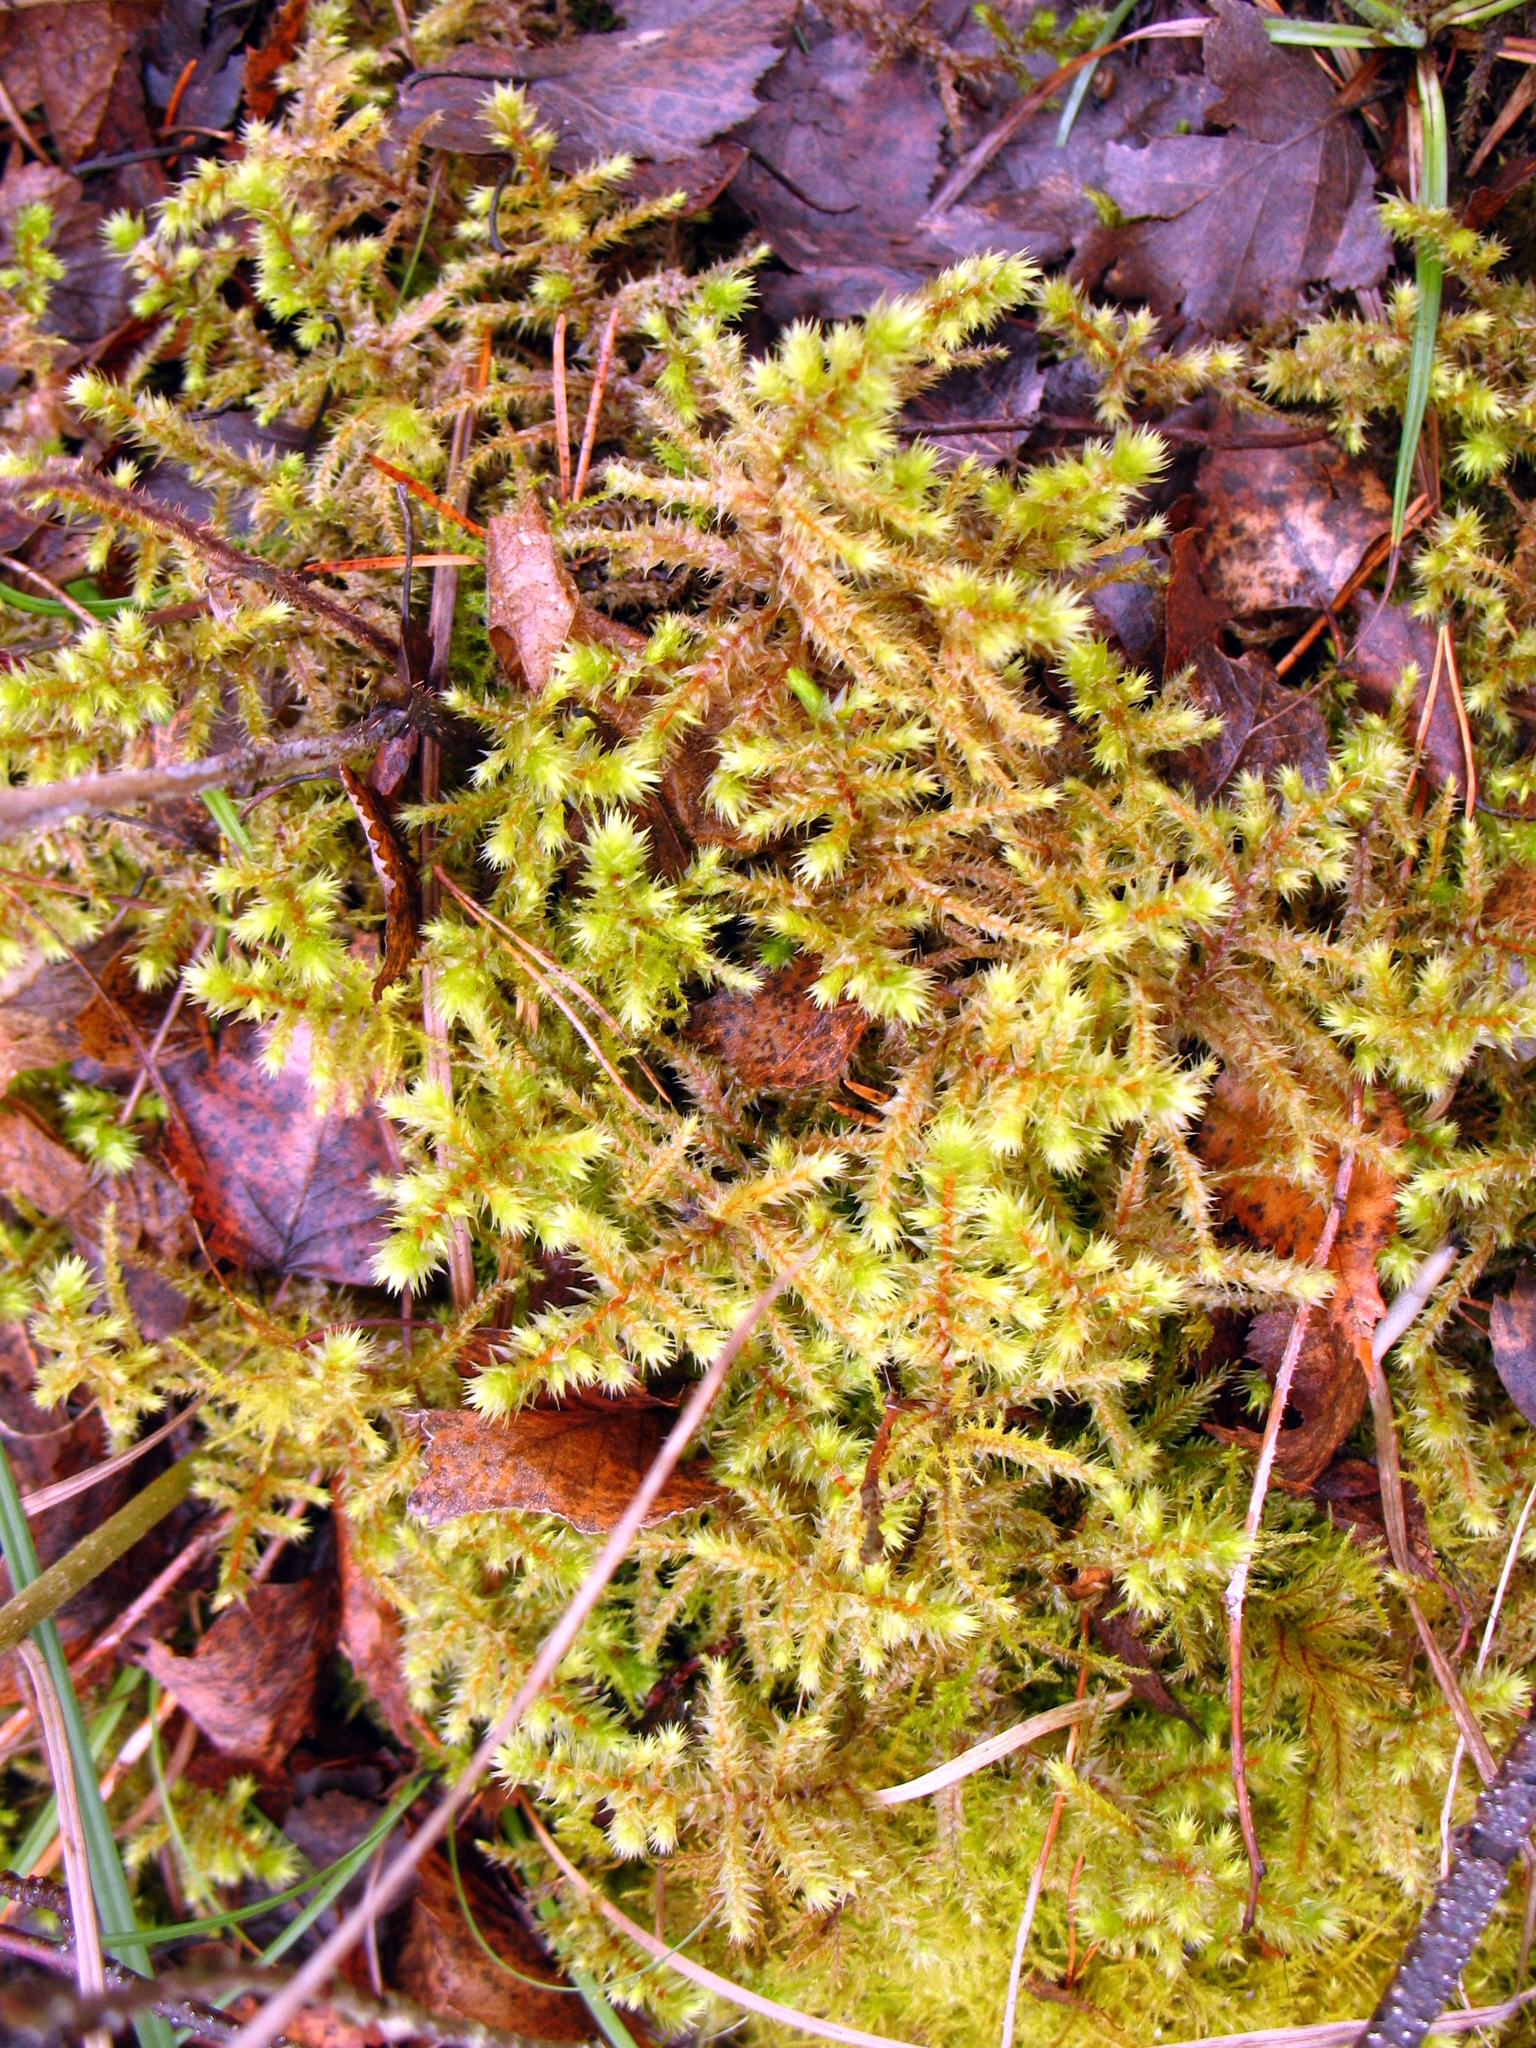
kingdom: Plantae
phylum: Bryophyta
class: Bryopsida
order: Hypnales
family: Hylocomiaceae
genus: Hylocomiadelphus
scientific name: Hylocomiadelphus triquetrus
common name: Rough goose neck moss
